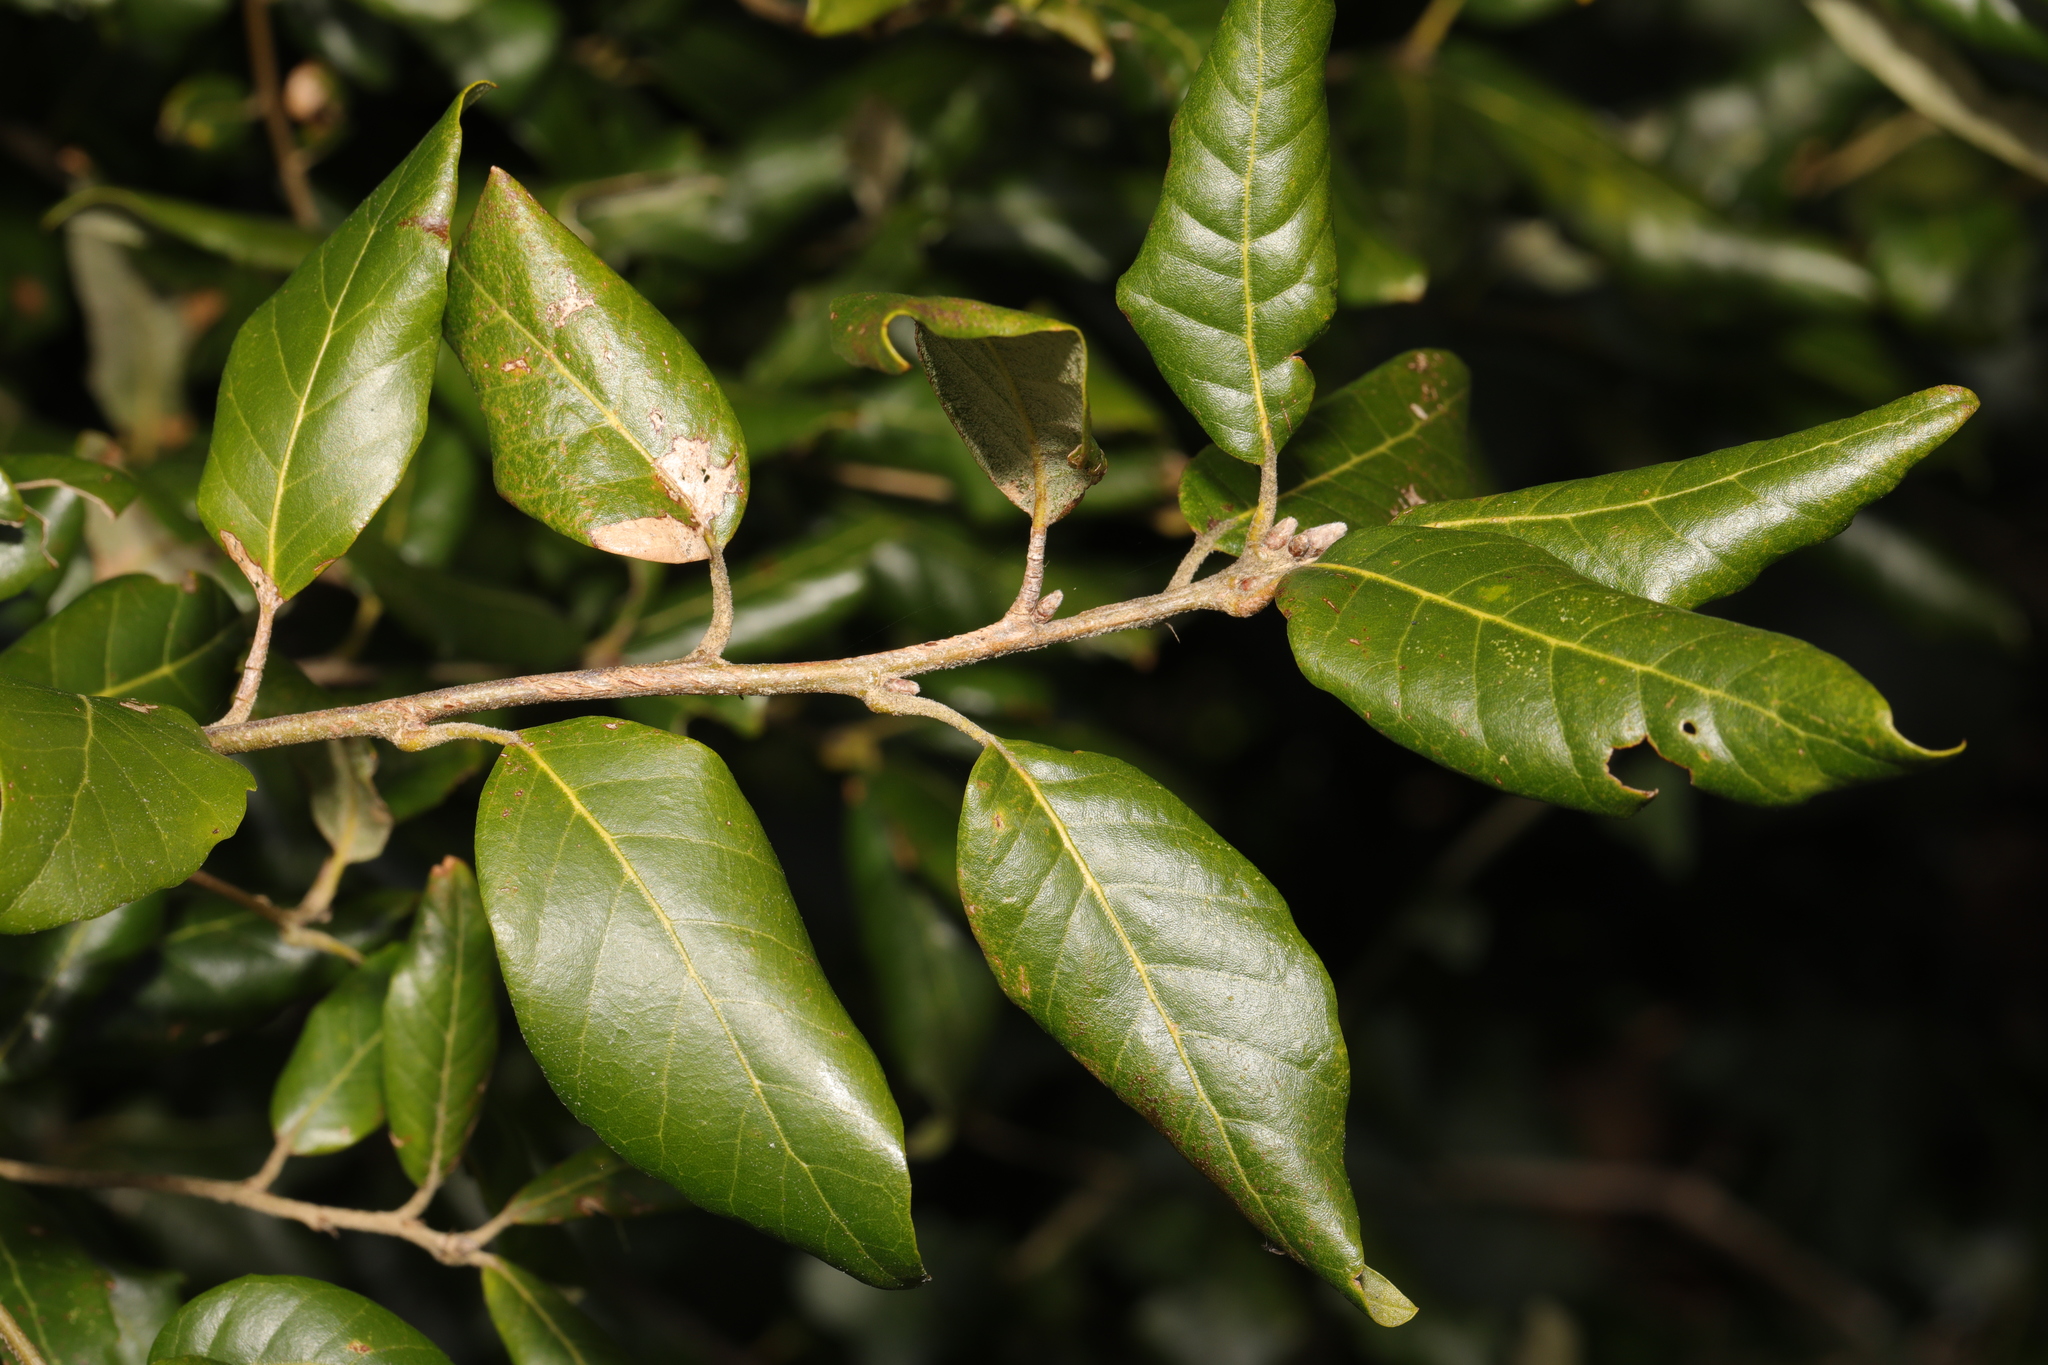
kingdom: Plantae
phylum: Tracheophyta
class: Magnoliopsida
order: Fagales
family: Fagaceae
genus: Quercus
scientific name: Quercus ilex
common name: Evergreen oak
